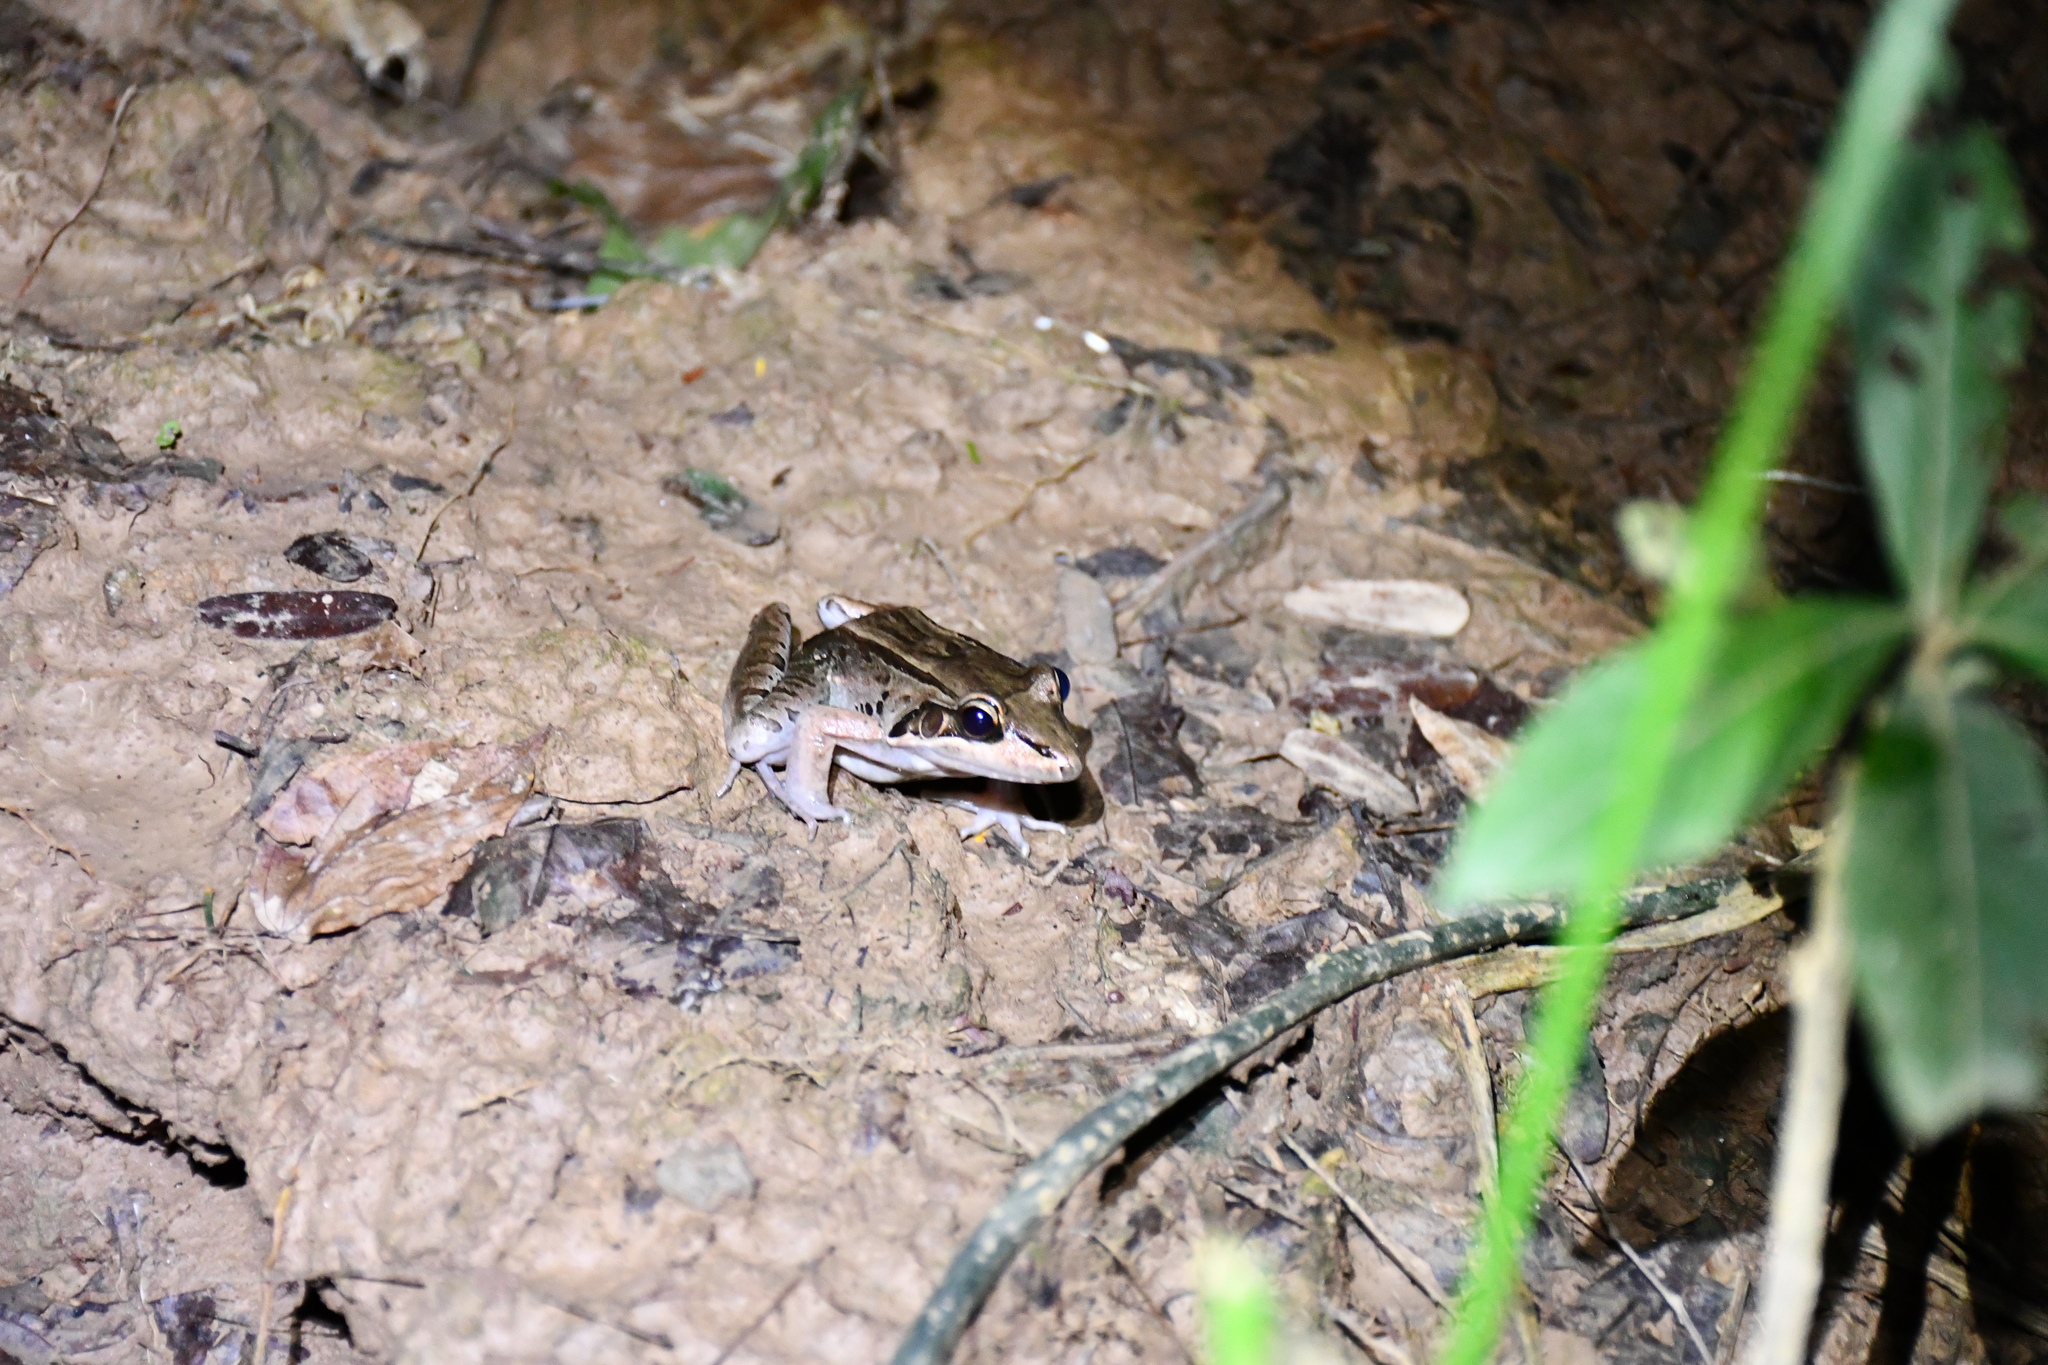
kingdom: Animalia
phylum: Chordata
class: Amphibia
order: Anura
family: Leptodactylidae
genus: Leptodactylus
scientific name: Leptodactylus mystaceus
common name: Amazonian white-lipped frog
